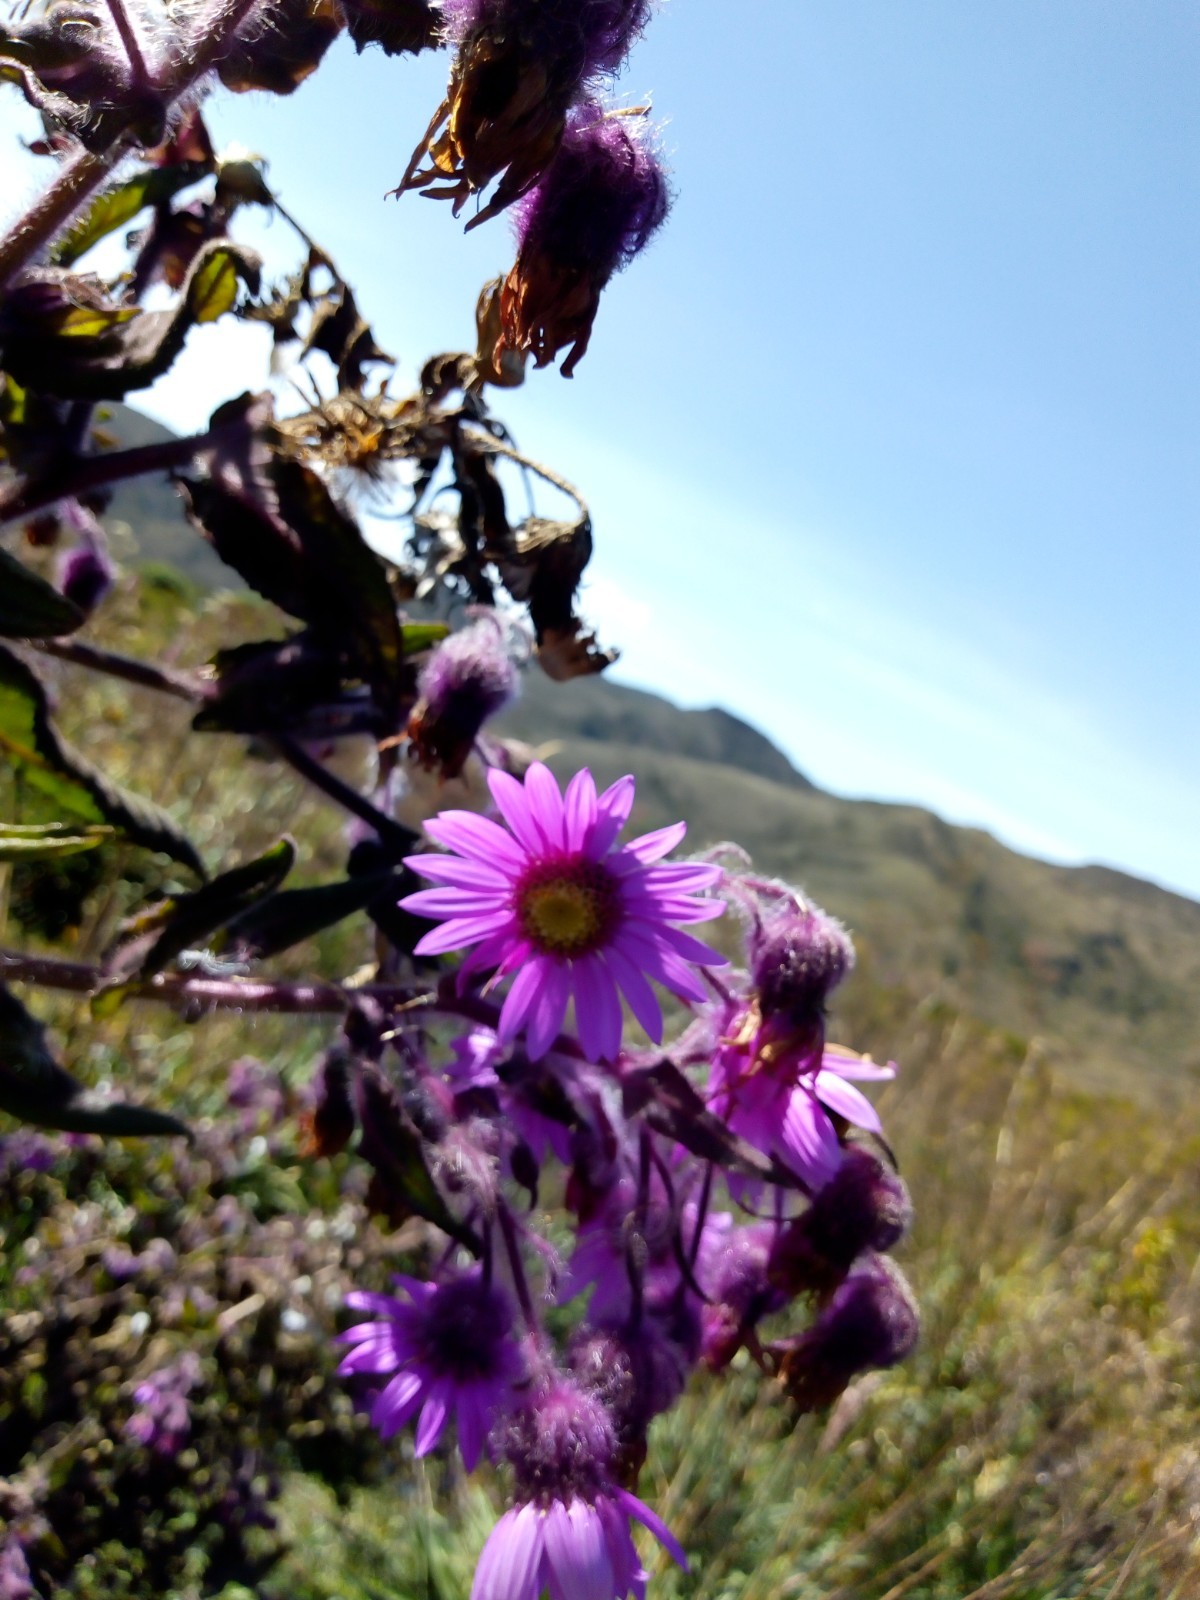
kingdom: Plantae
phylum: Tracheophyta
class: Magnoliopsida
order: Asterales
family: Asteraceae
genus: Senecio
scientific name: Senecio formosus
